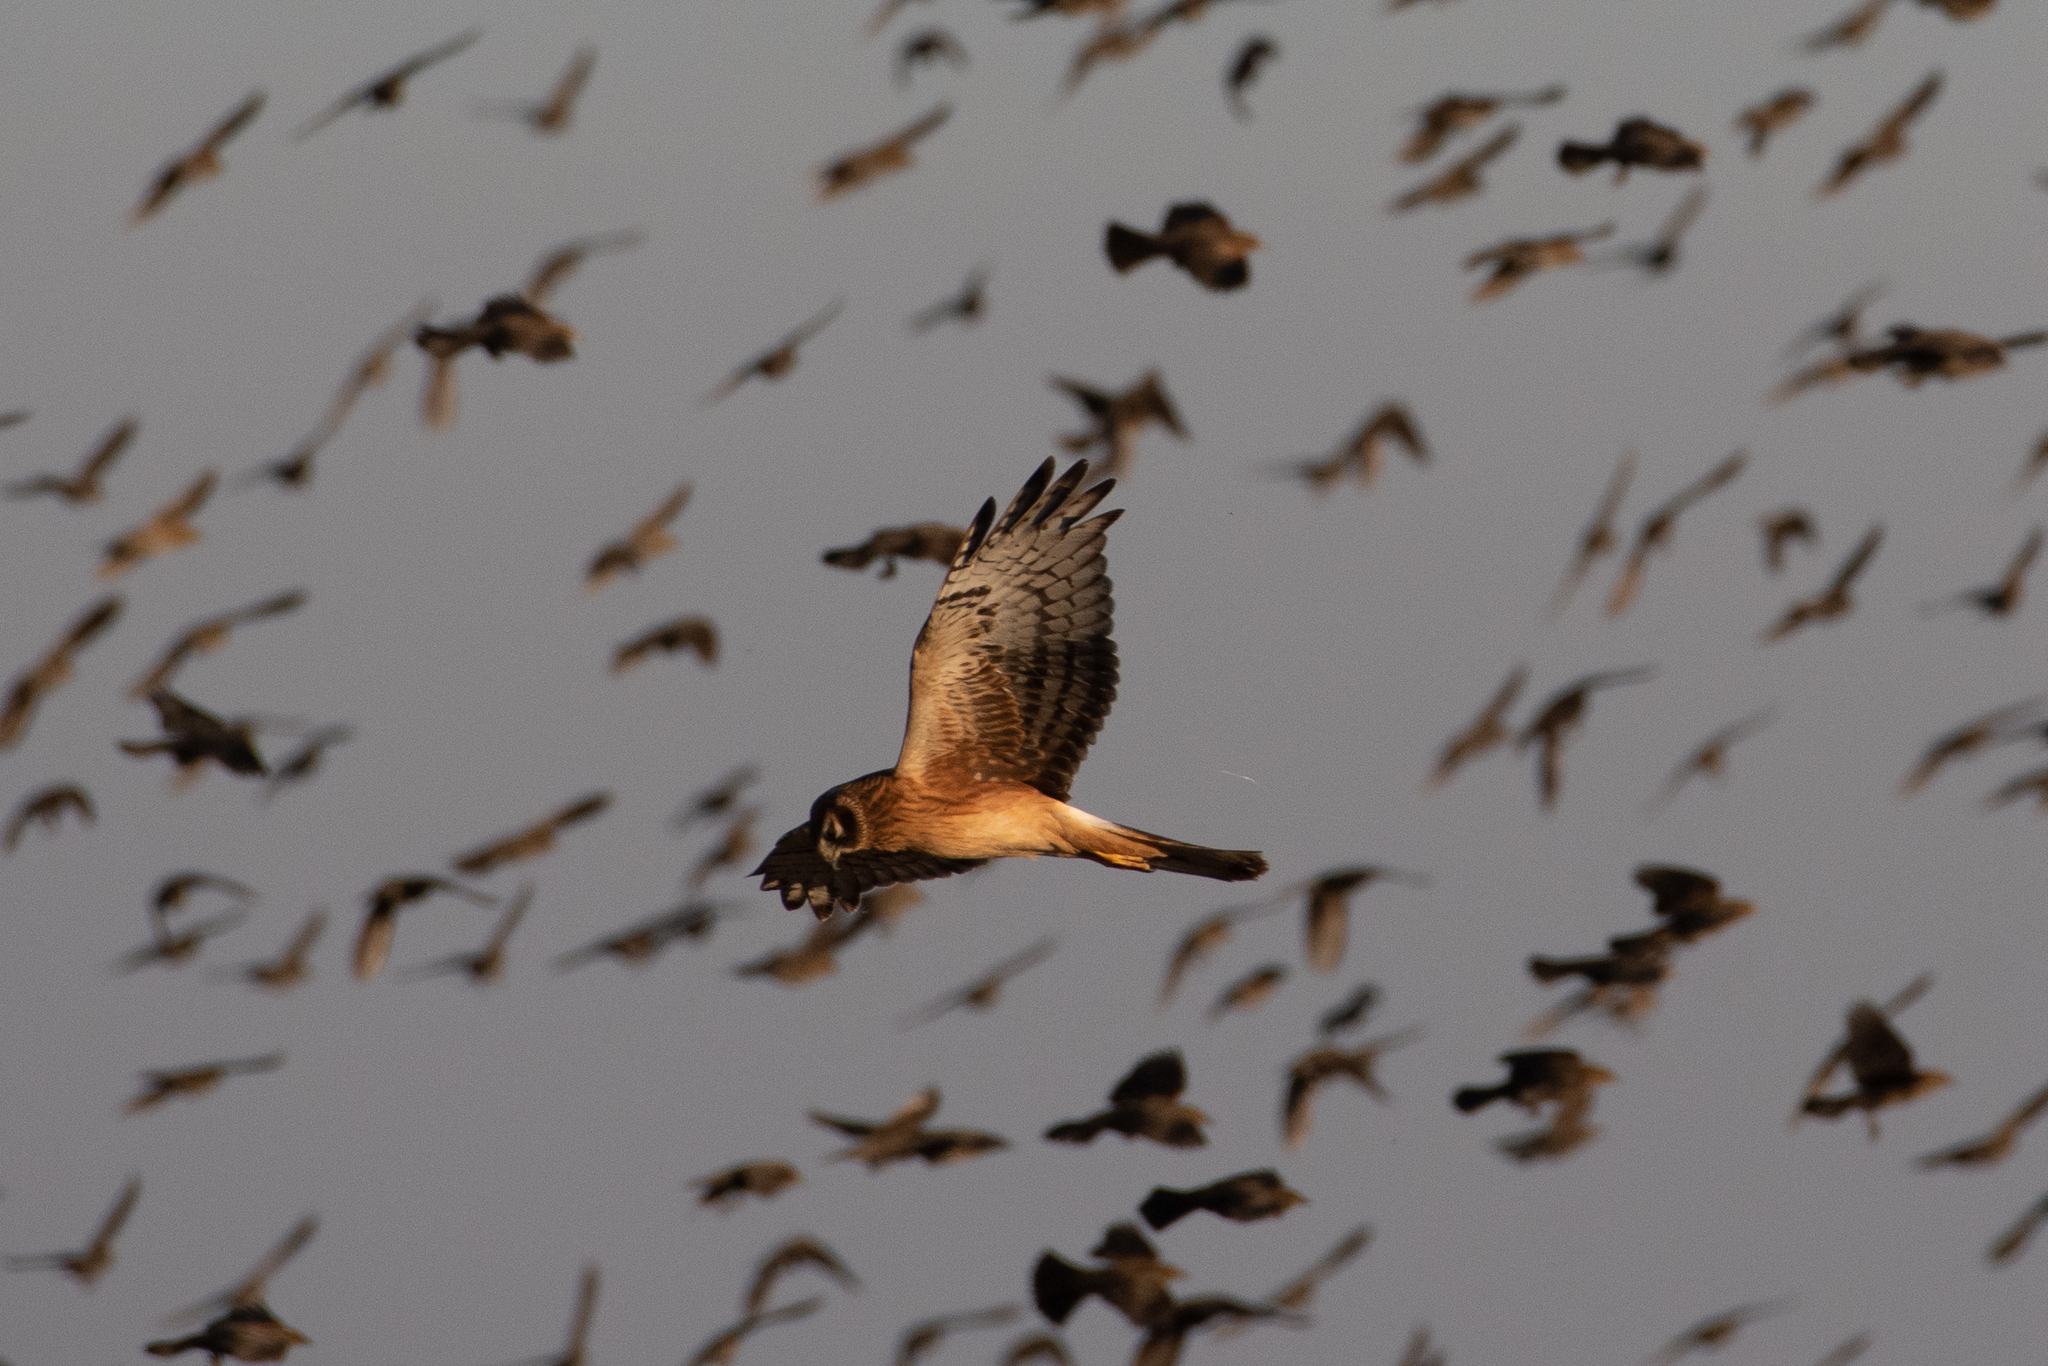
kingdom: Animalia
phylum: Chordata
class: Aves
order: Accipitriformes
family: Accipitridae
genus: Circus
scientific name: Circus cyaneus
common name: Hen harrier
